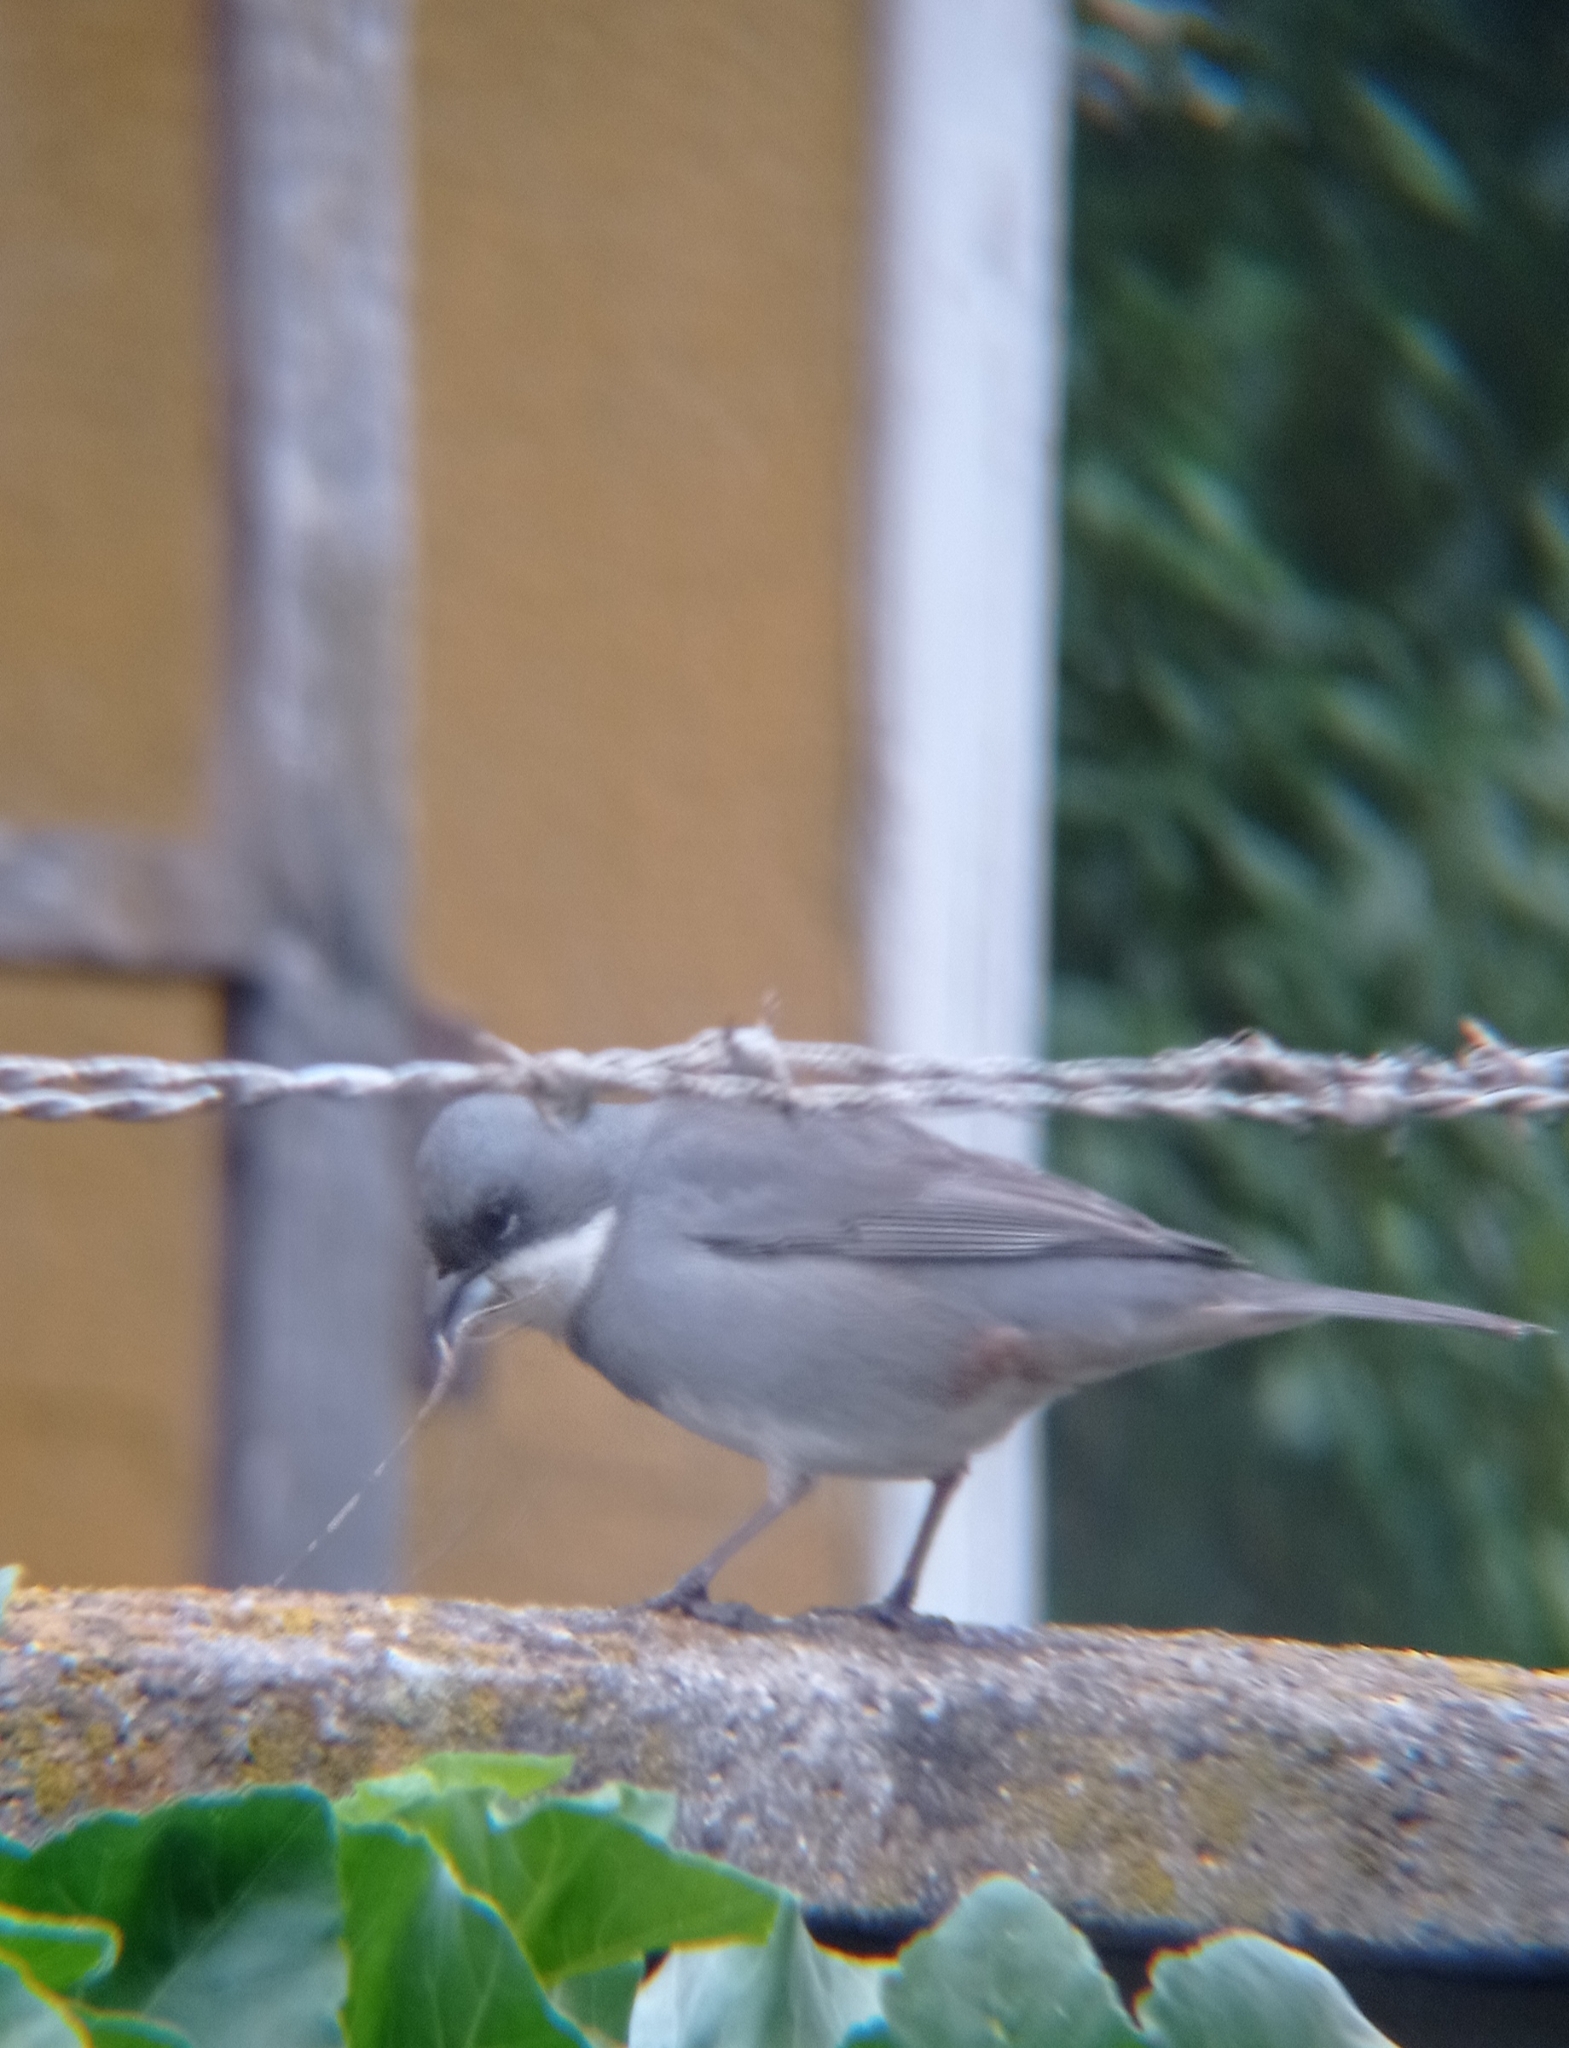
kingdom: Animalia
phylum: Chordata
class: Aves
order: Passeriformes
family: Thraupidae
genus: Diuca
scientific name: Diuca diuca
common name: Common diuca finch
